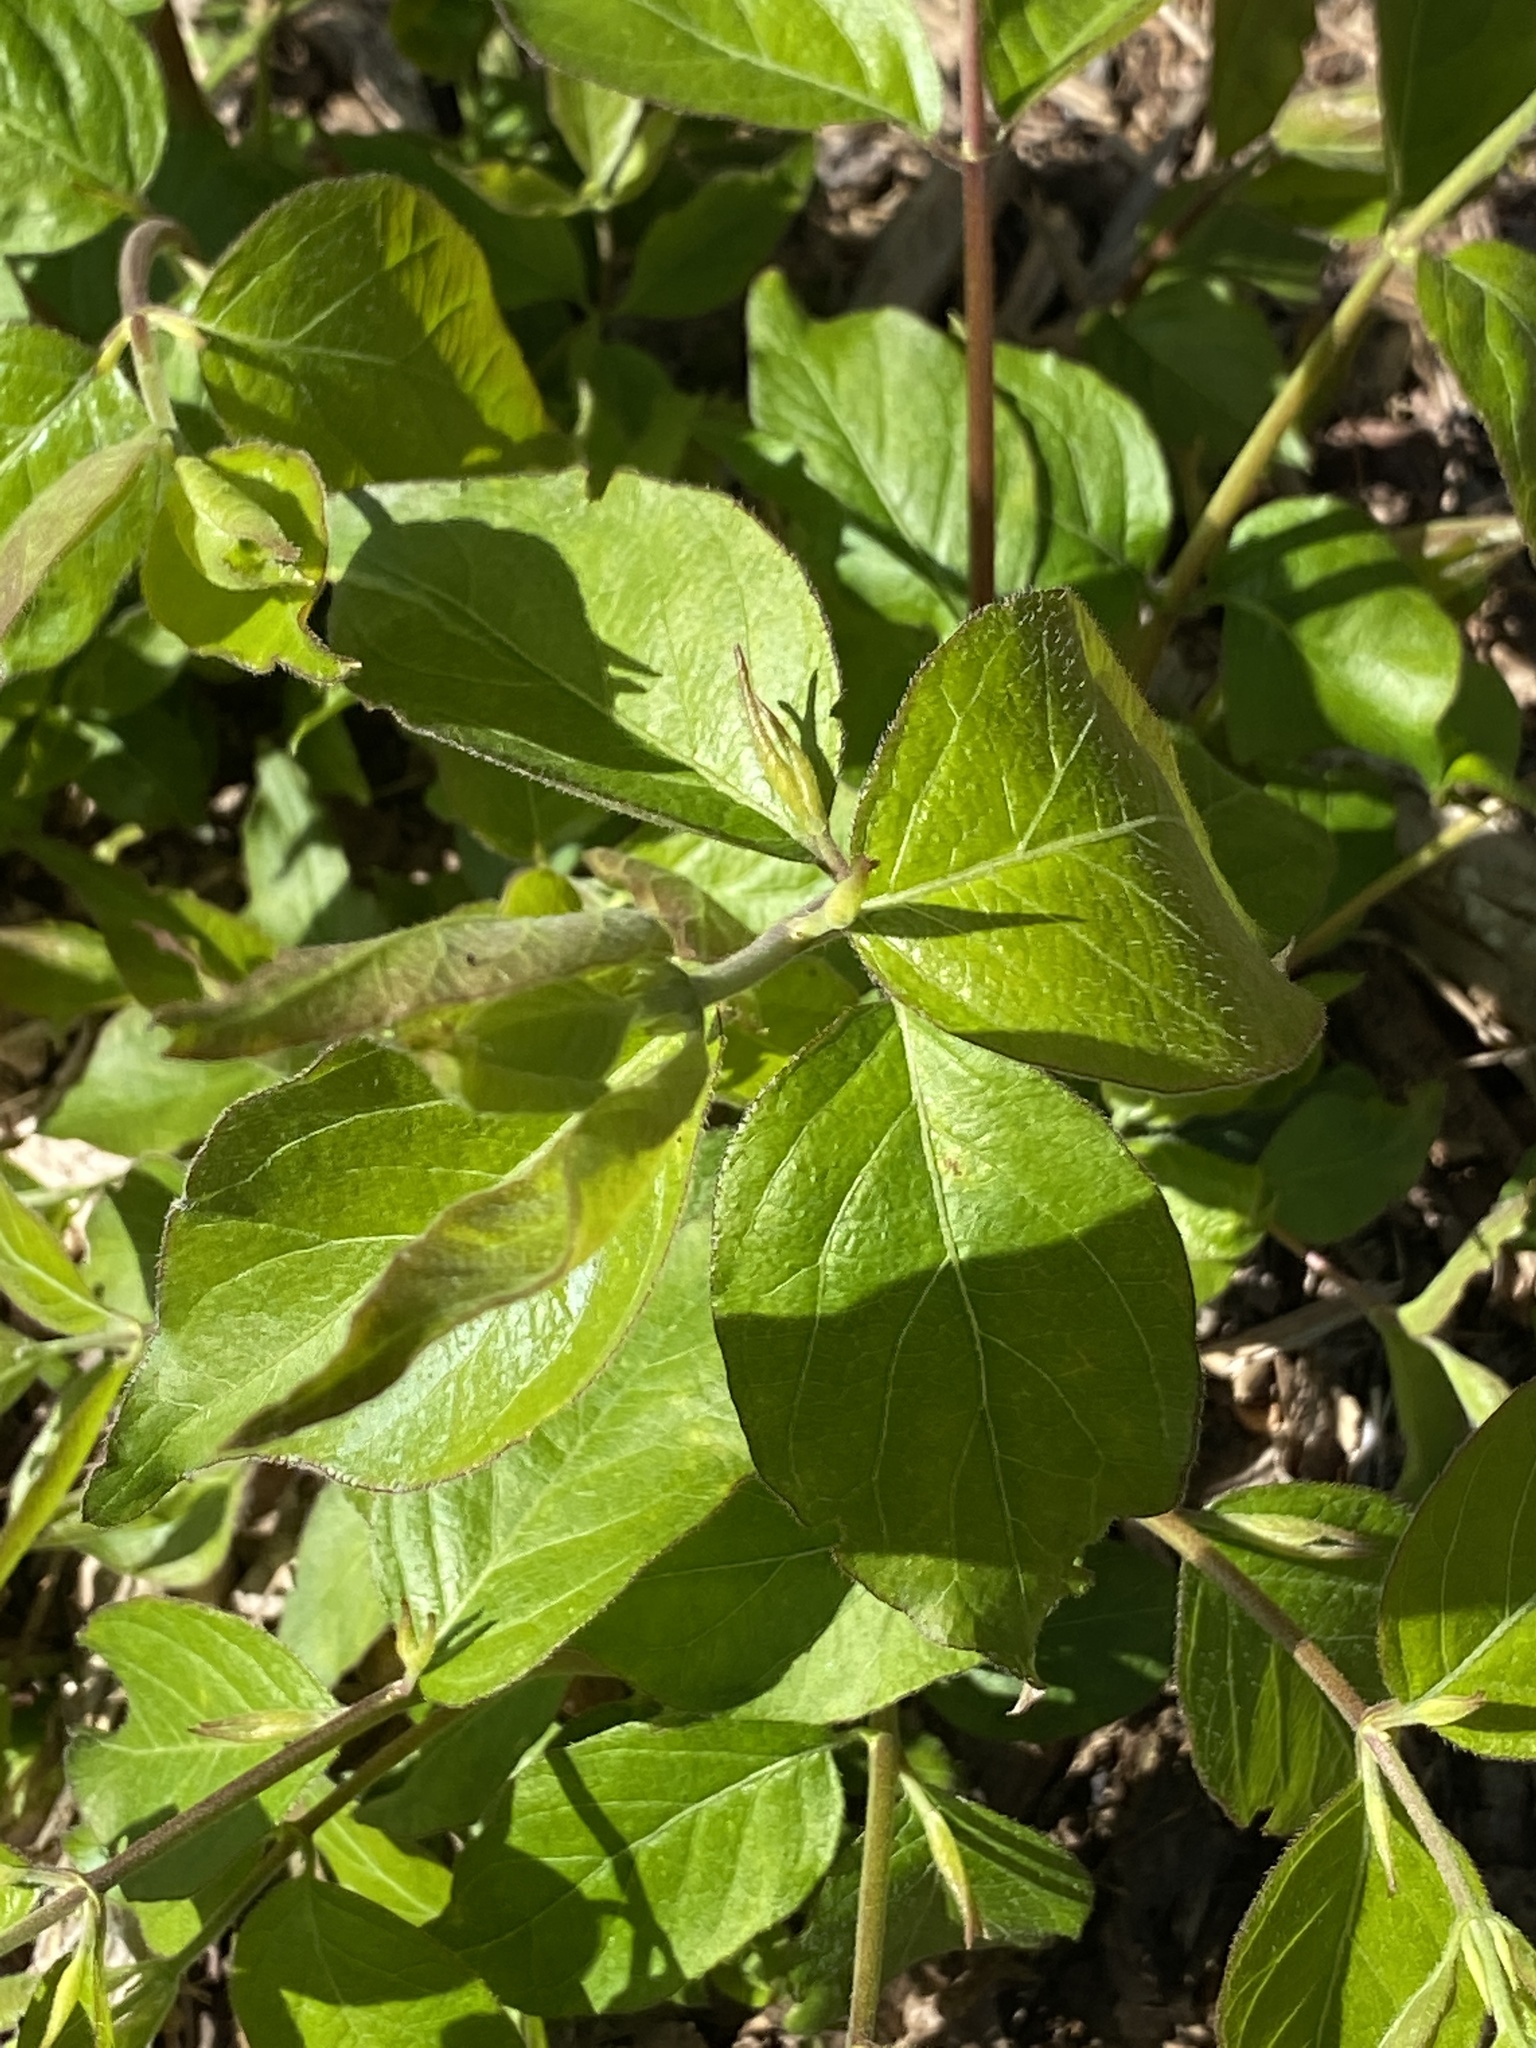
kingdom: Plantae
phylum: Tracheophyta
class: Magnoliopsida
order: Dipsacales
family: Caprifoliaceae
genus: Lonicera
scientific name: Lonicera maackii
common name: Amur honeysuckle
